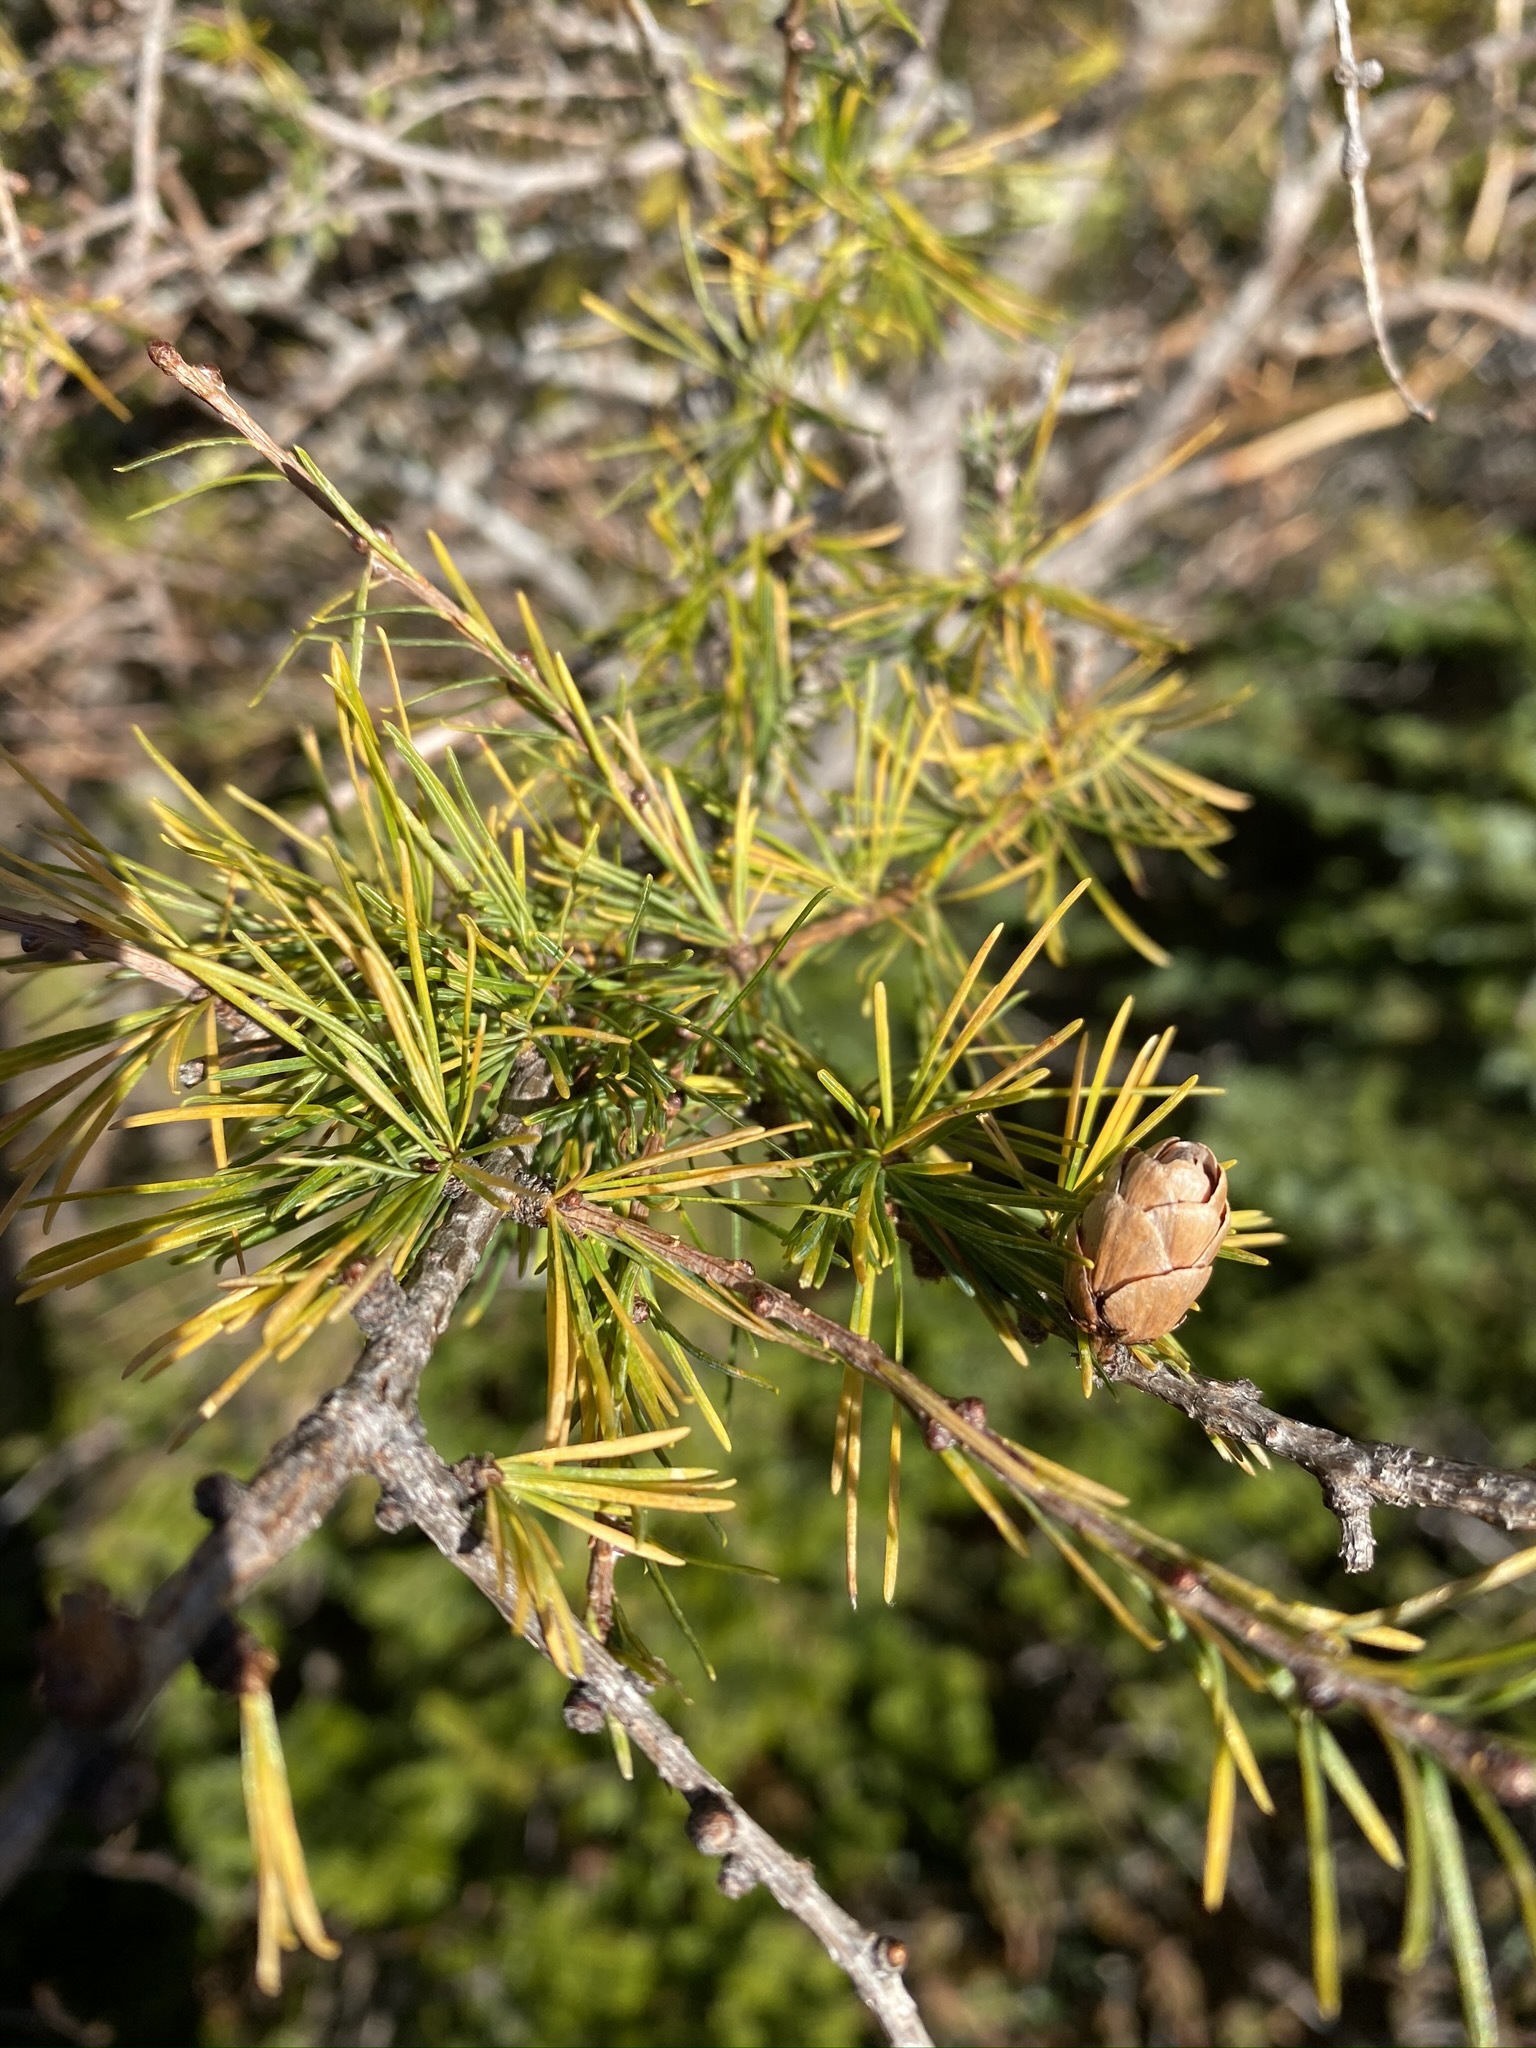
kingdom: Plantae
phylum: Tracheophyta
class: Pinopsida
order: Pinales
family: Pinaceae
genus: Larix
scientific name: Larix laricina
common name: American larch
